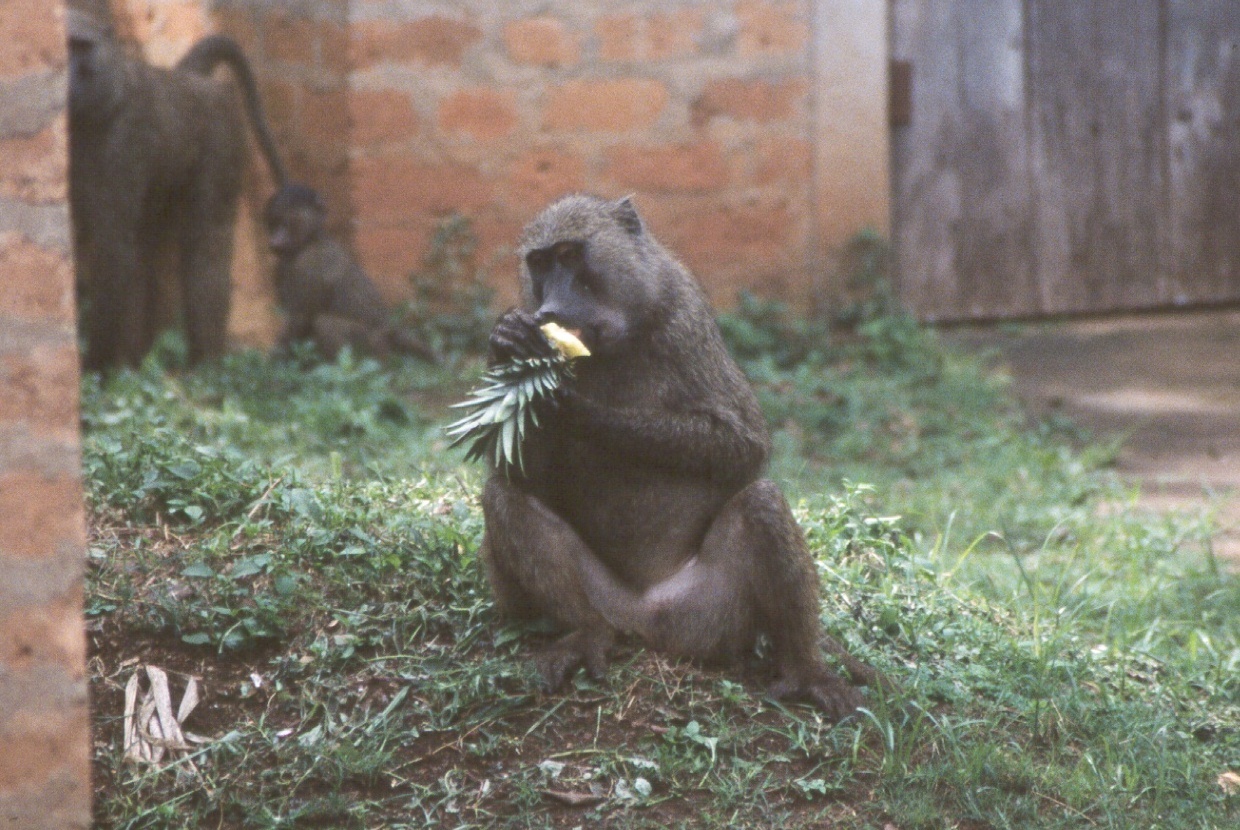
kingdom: Animalia
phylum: Chordata
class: Mammalia
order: Primates
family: Cercopithecidae
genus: Papio
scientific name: Papio anubis
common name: Olive baboon
